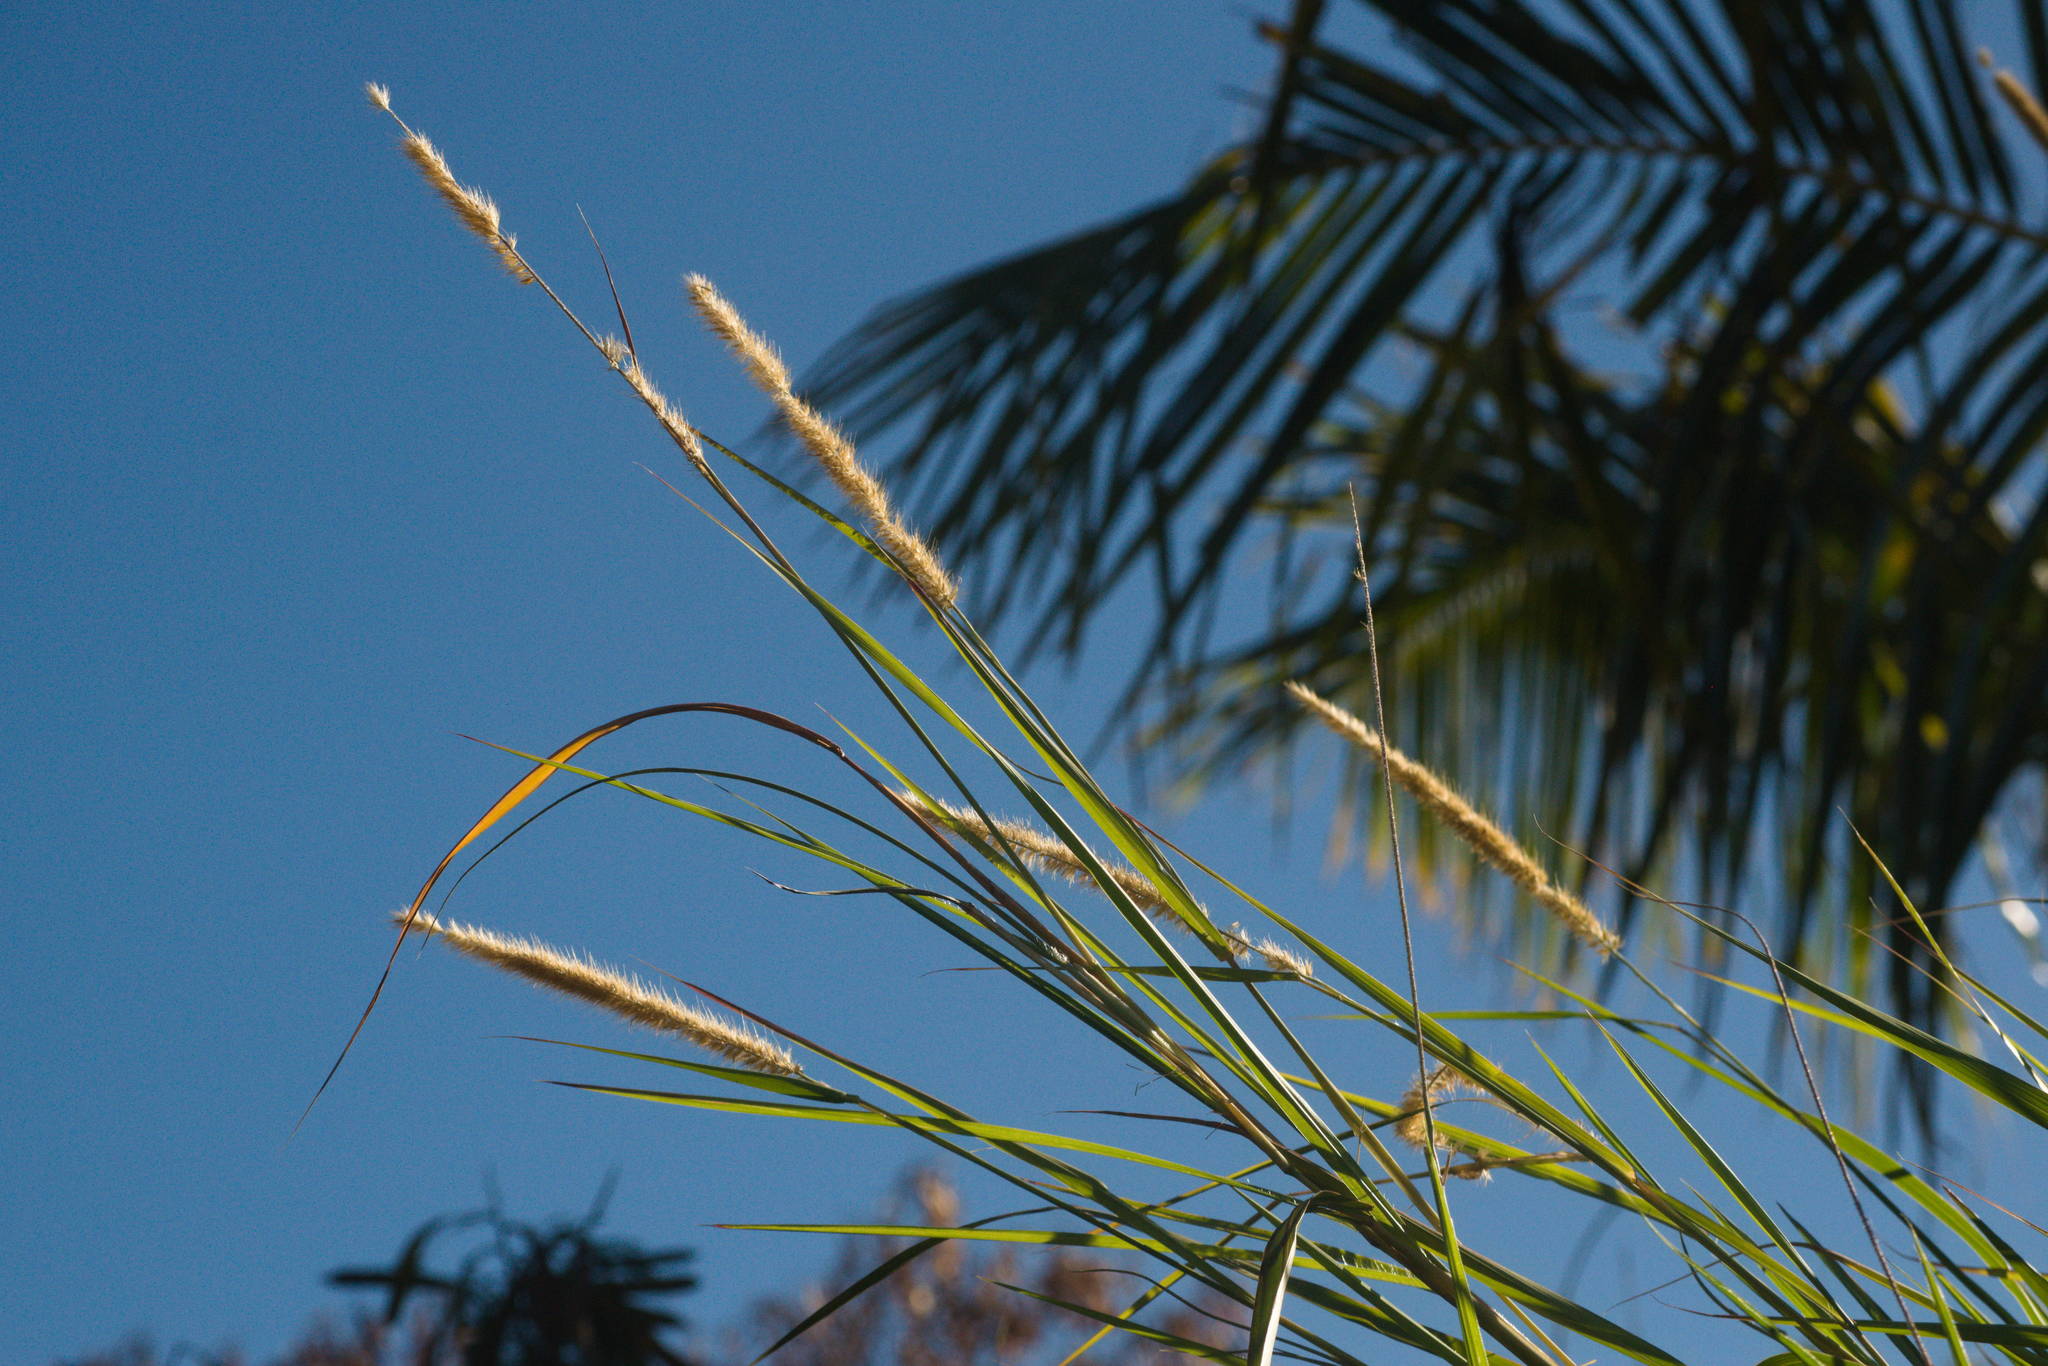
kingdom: Plantae
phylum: Tracheophyta
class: Liliopsida
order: Poales
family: Poaceae
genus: Cenchrus
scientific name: Cenchrus purpureus
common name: Elephant grass
